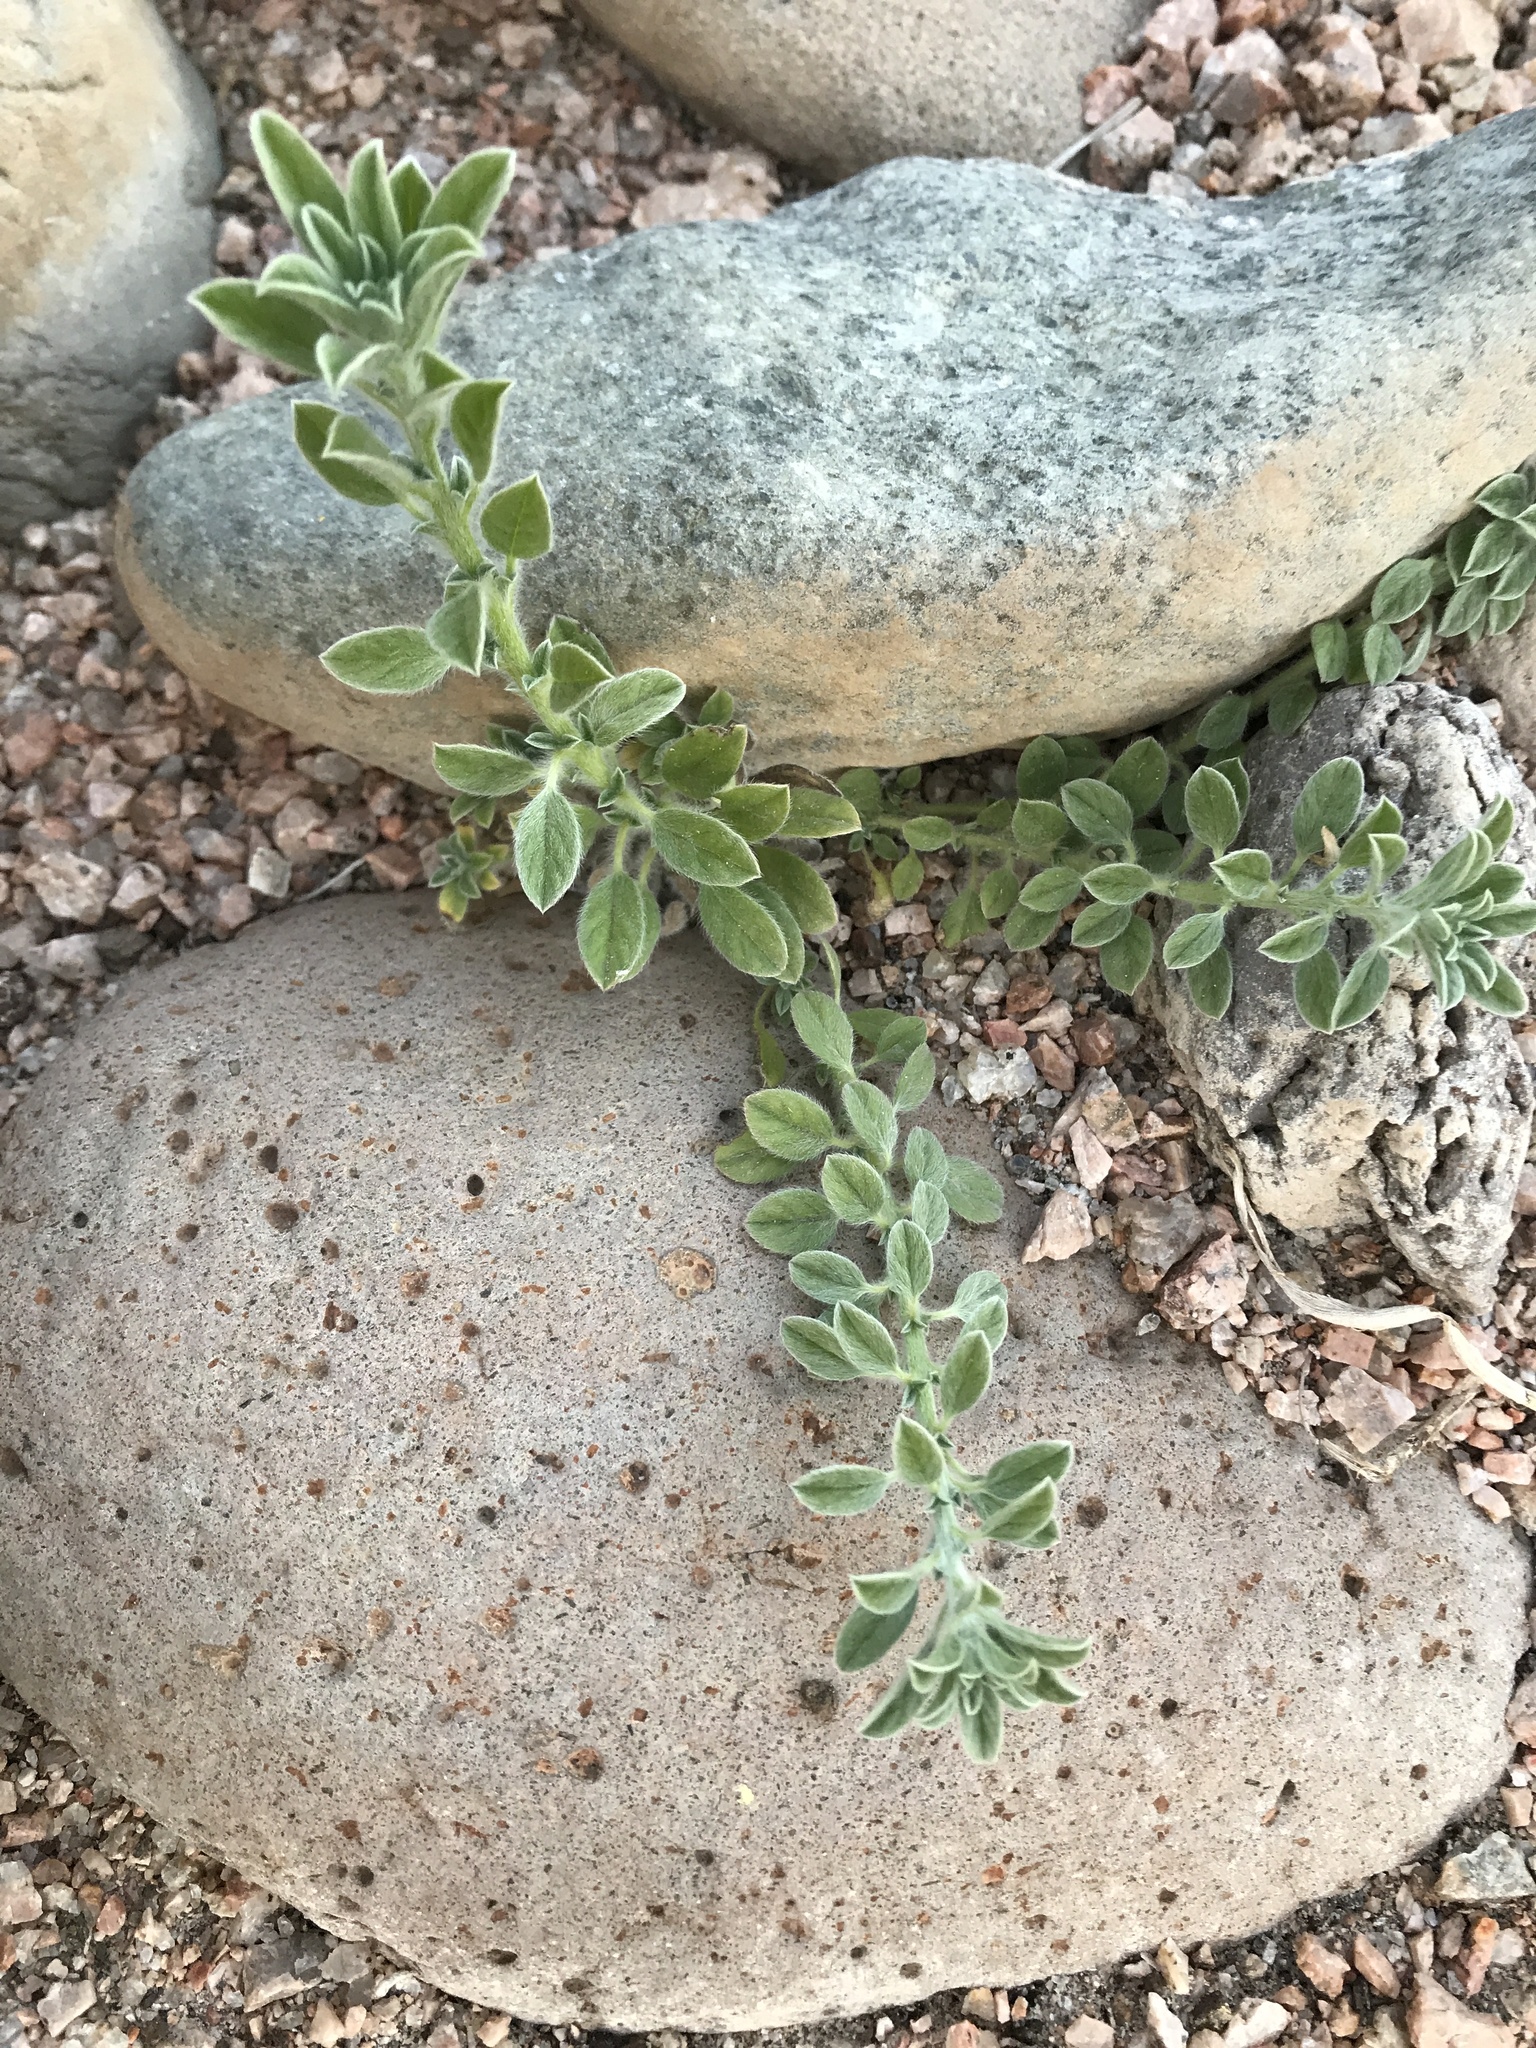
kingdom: Plantae
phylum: Tracheophyta
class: Magnoliopsida
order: Boraginales
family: Heliotropiaceae
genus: Euploca
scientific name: Euploca procumbens
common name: Fourspike heliotrope
